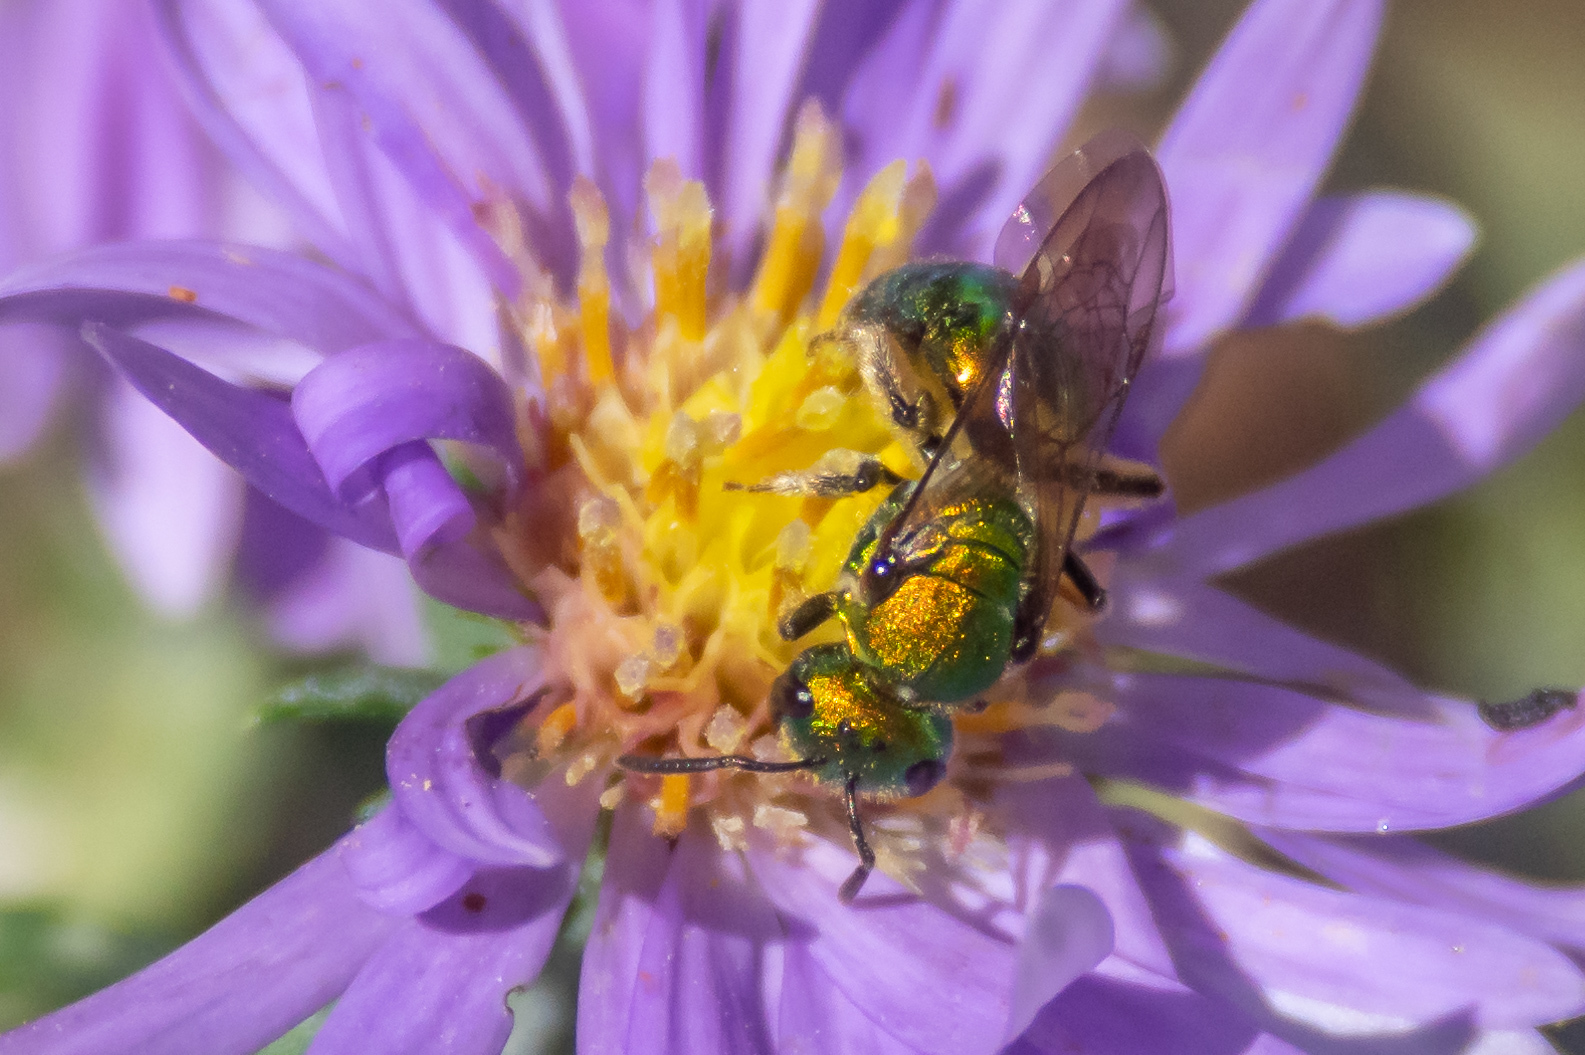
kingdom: Animalia
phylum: Arthropoda
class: Insecta
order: Hymenoptera
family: Halictidae
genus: Augochlora
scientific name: Augochlora pura
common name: Pure green sweat bee
